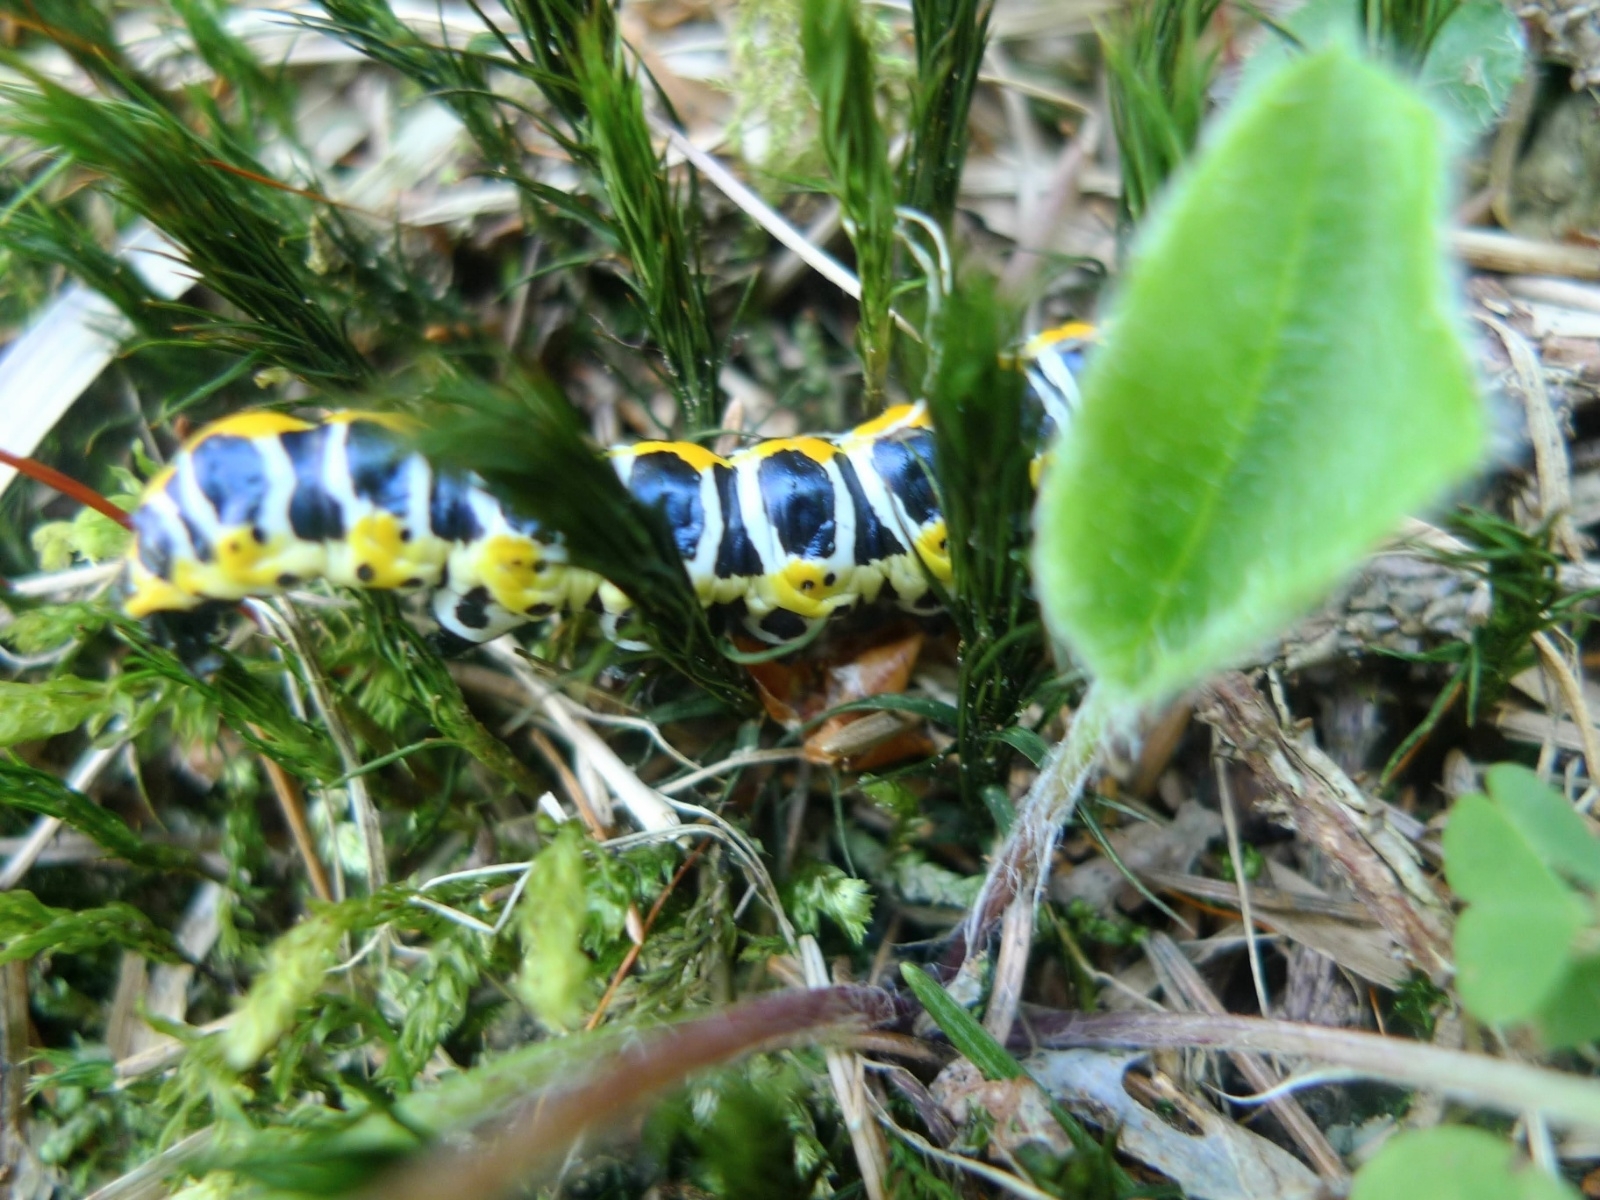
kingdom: Animalia
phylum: Arthropoda
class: Insecta
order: Lepidoptera
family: Noctuidae
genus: Cucullia
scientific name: Cucullia lactucae
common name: Lettuce shark
